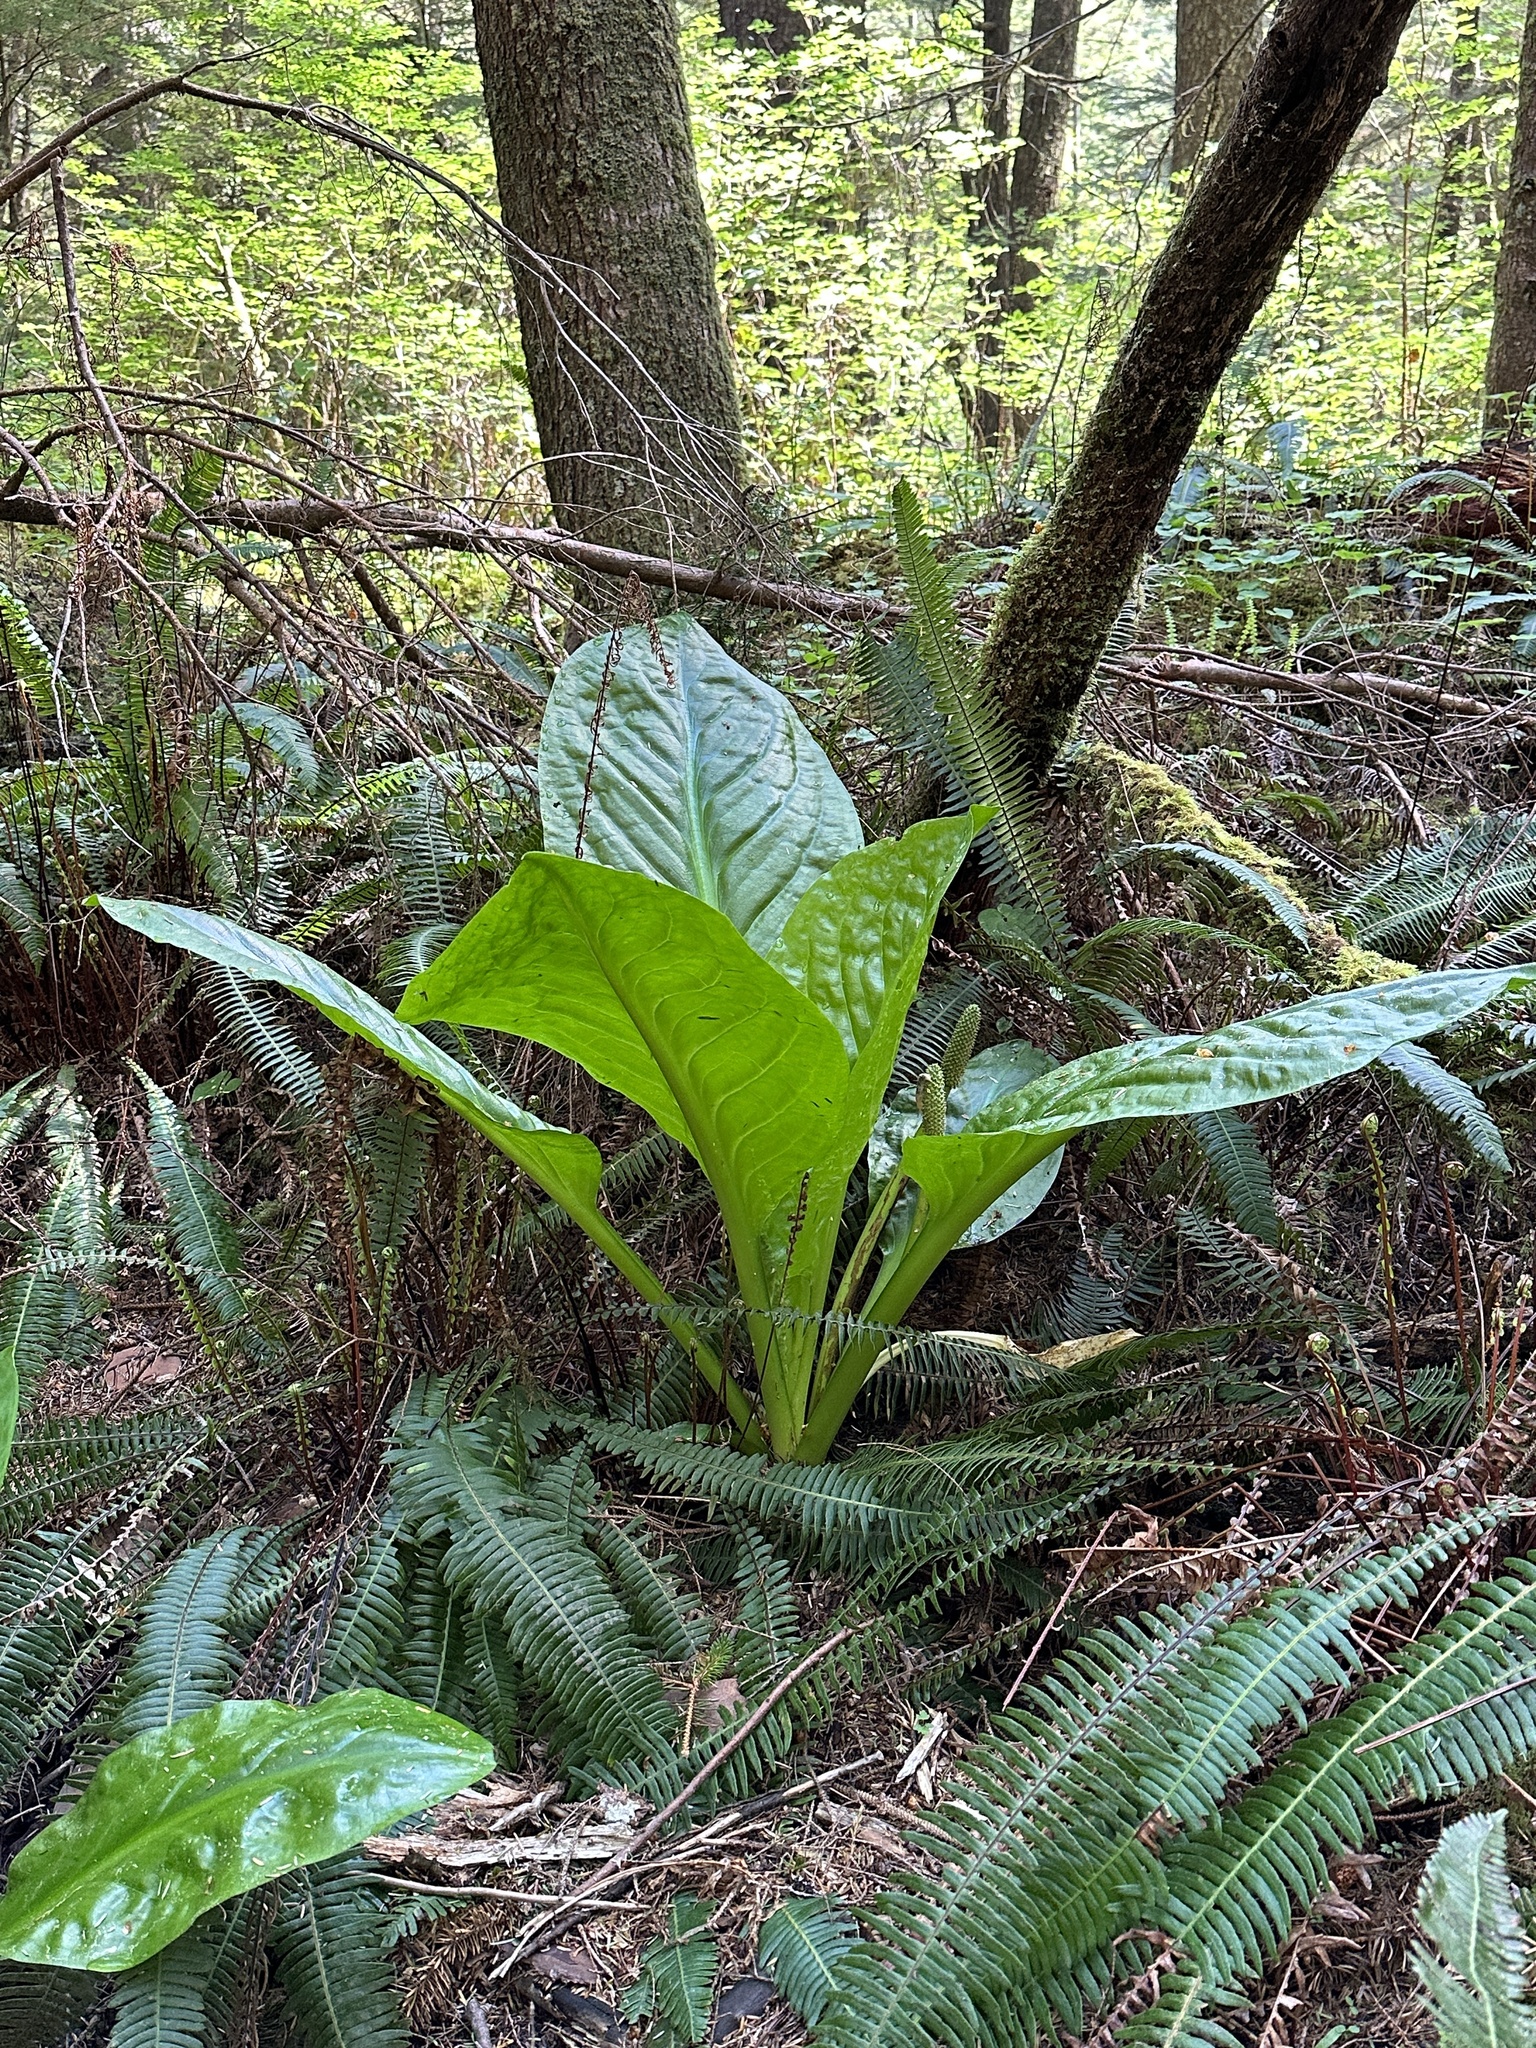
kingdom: Plantae
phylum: Tracheophyta
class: Liliopsida
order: Alismatales
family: Araceae
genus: Lysichiton
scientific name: Lysichiton americanus
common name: American skunk cabbage
